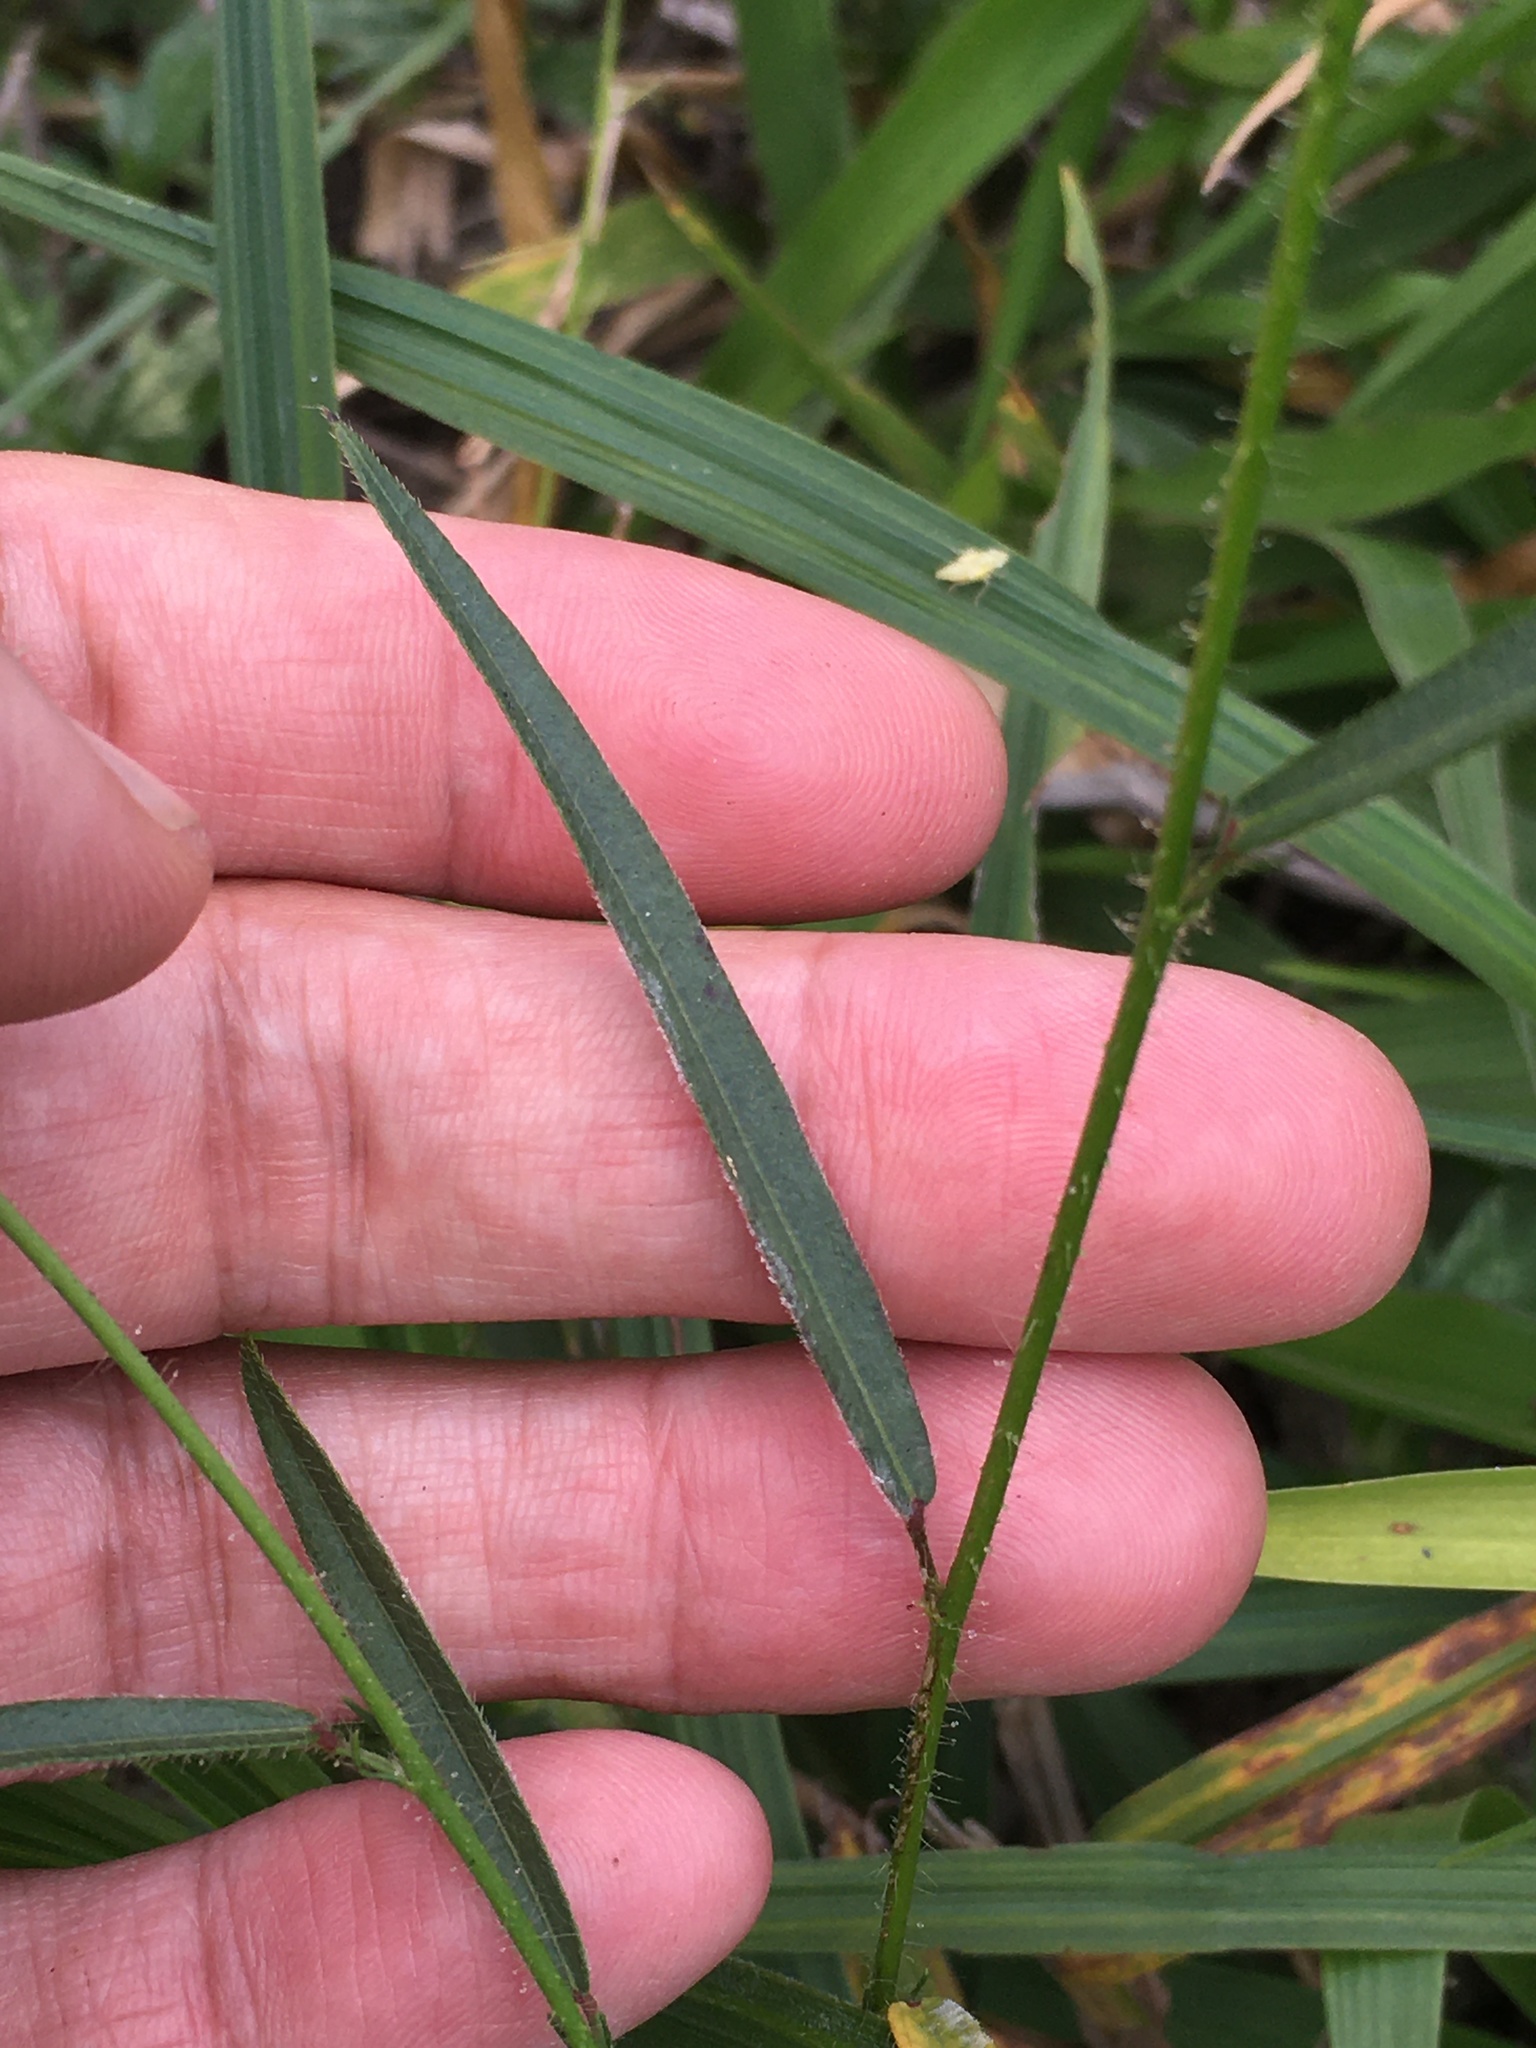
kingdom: Plantae
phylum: Tracheophyta
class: Magnoliopsida
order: Malvales
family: Malvaceae
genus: Sida
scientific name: Sida linifolia
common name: Flaxleaf fanpetals
